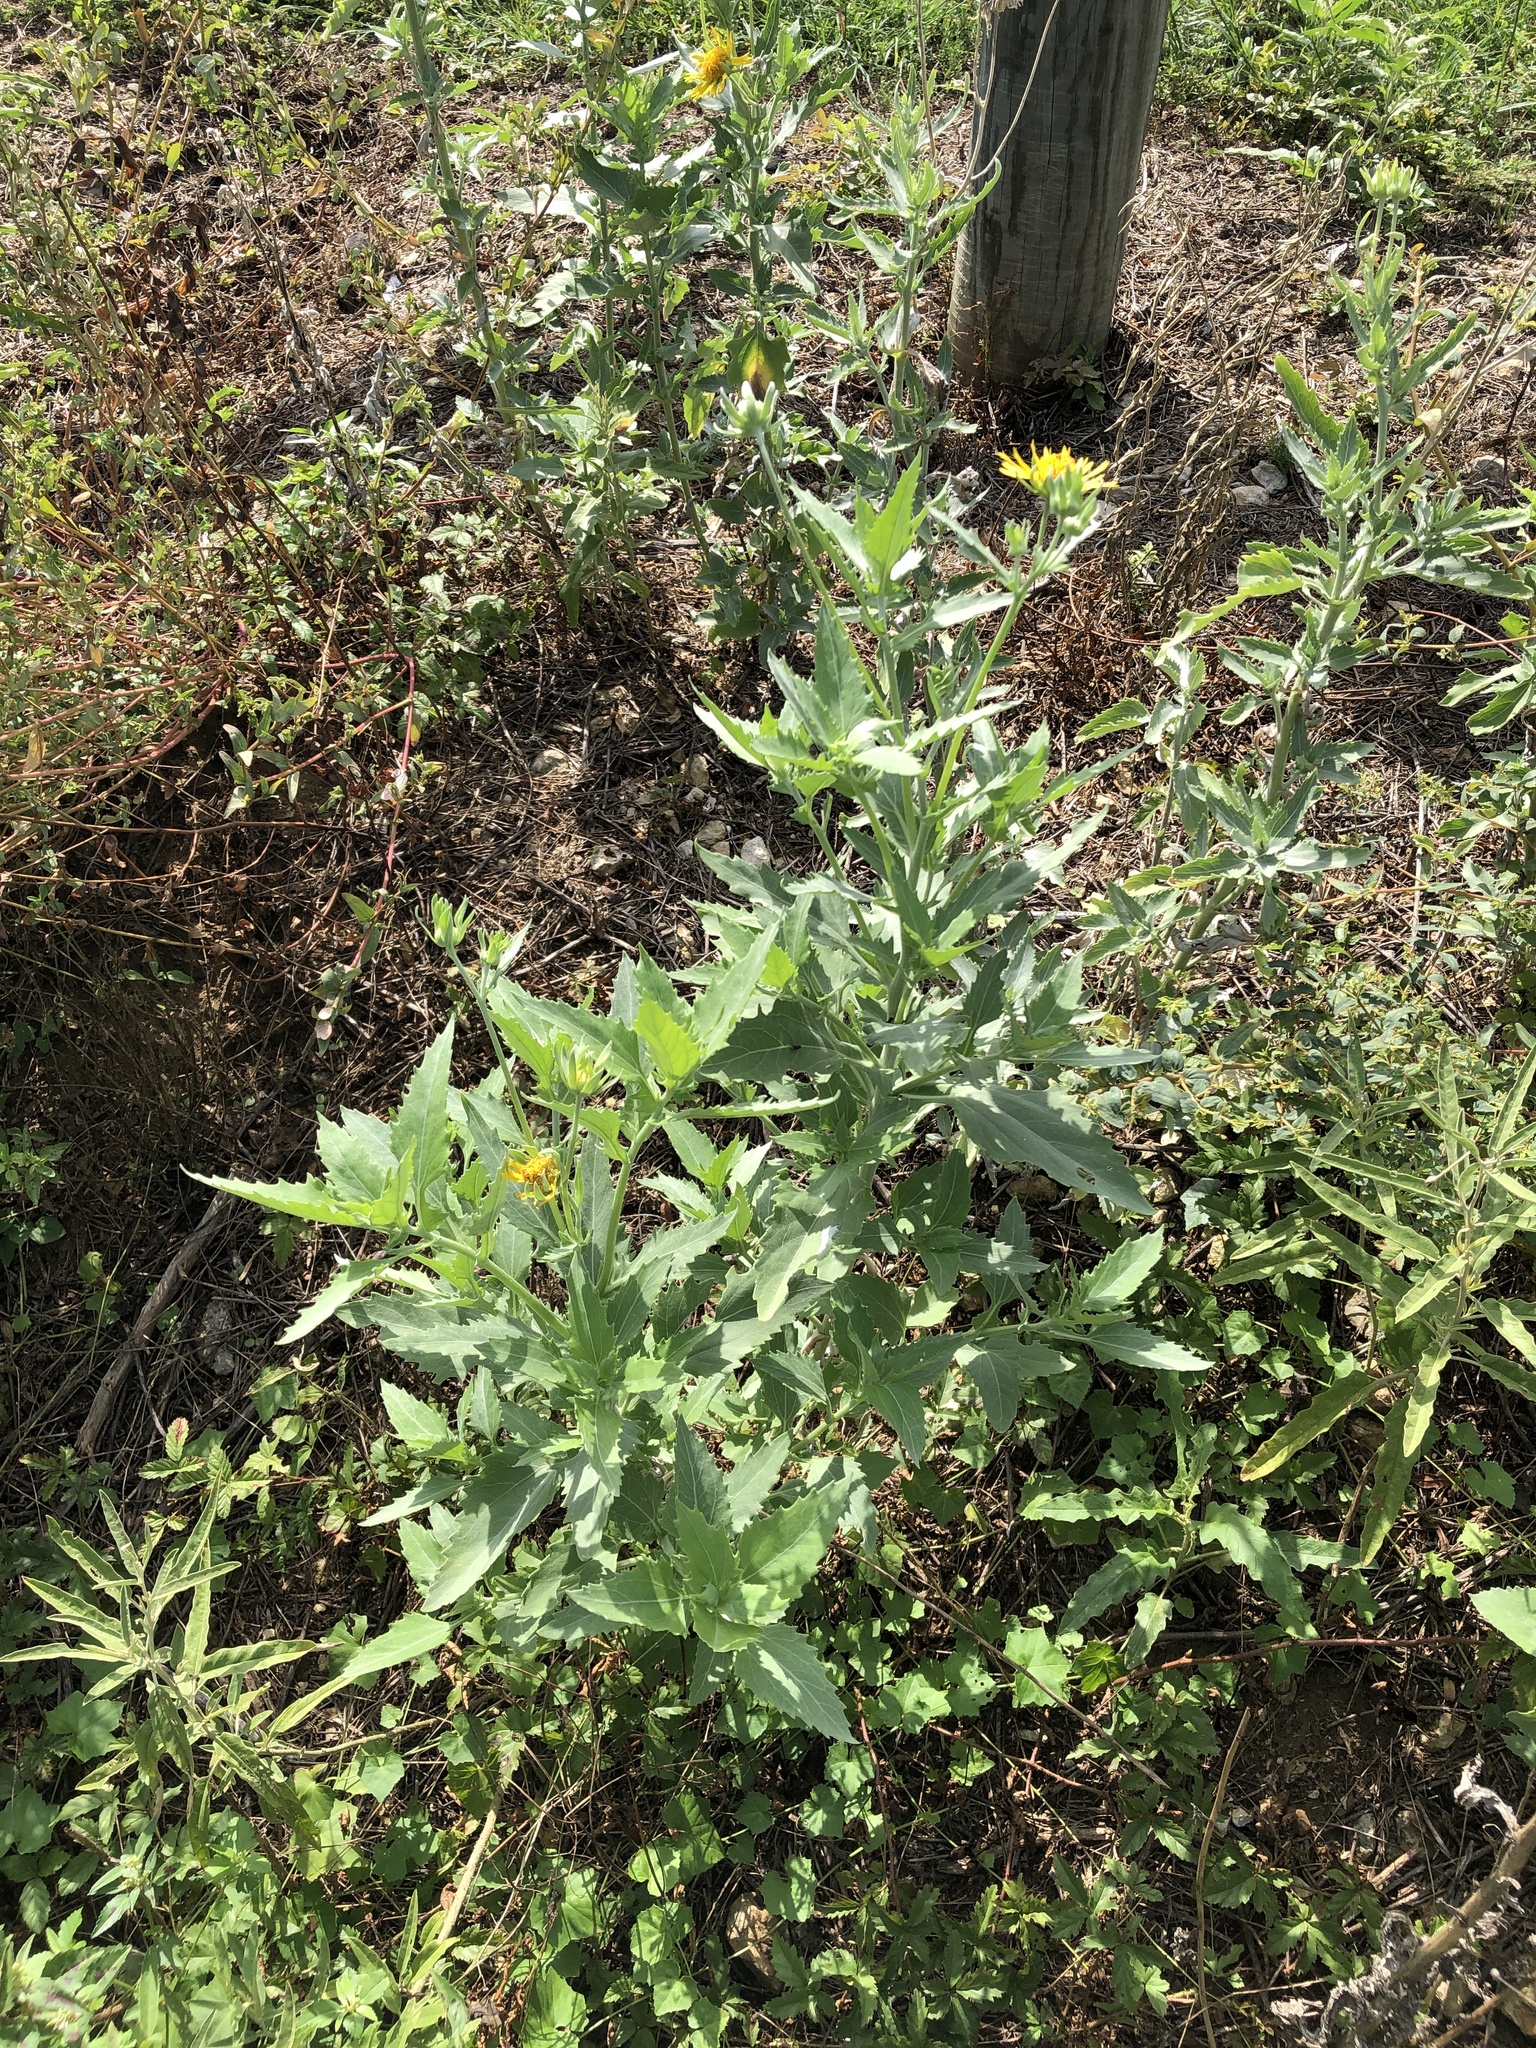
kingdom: Plantae
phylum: Tracheophyta
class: Magnoliopsida
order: Asterales
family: Asteraceae
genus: Verbesina
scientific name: Verbesina encelioides
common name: Golden crownbeard
